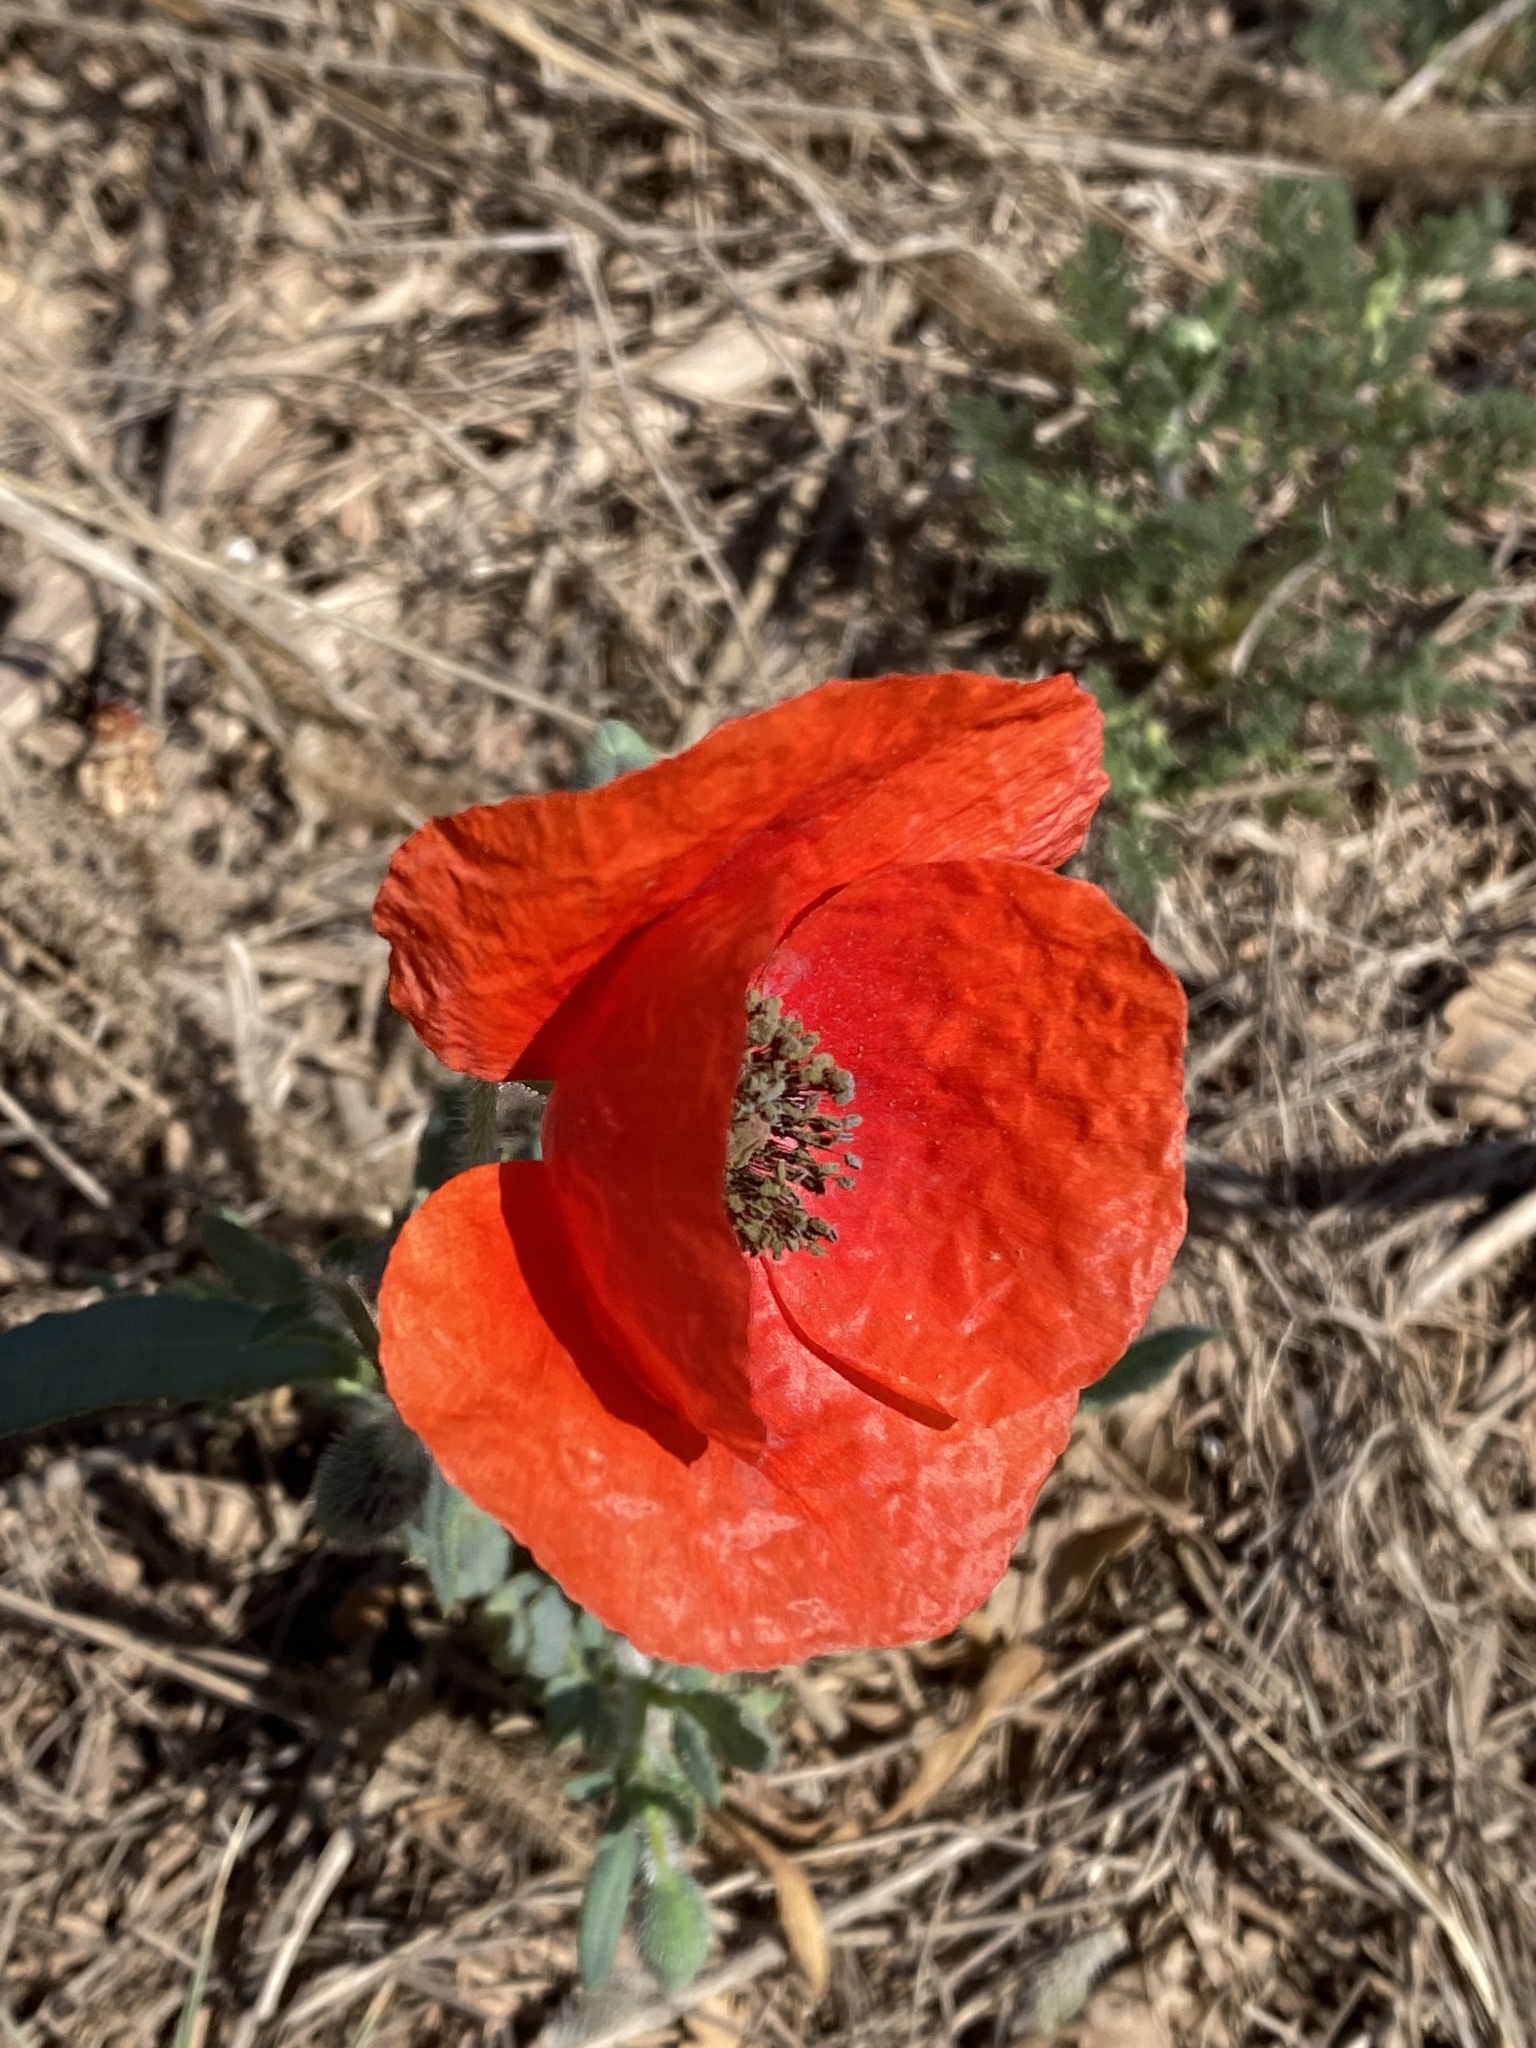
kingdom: Plantae
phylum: Tracheophyta
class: Magnoliopsida
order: Ranunculales
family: Papaveraceae
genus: Papaver
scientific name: Papaver rhoeas
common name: Corn poppy
